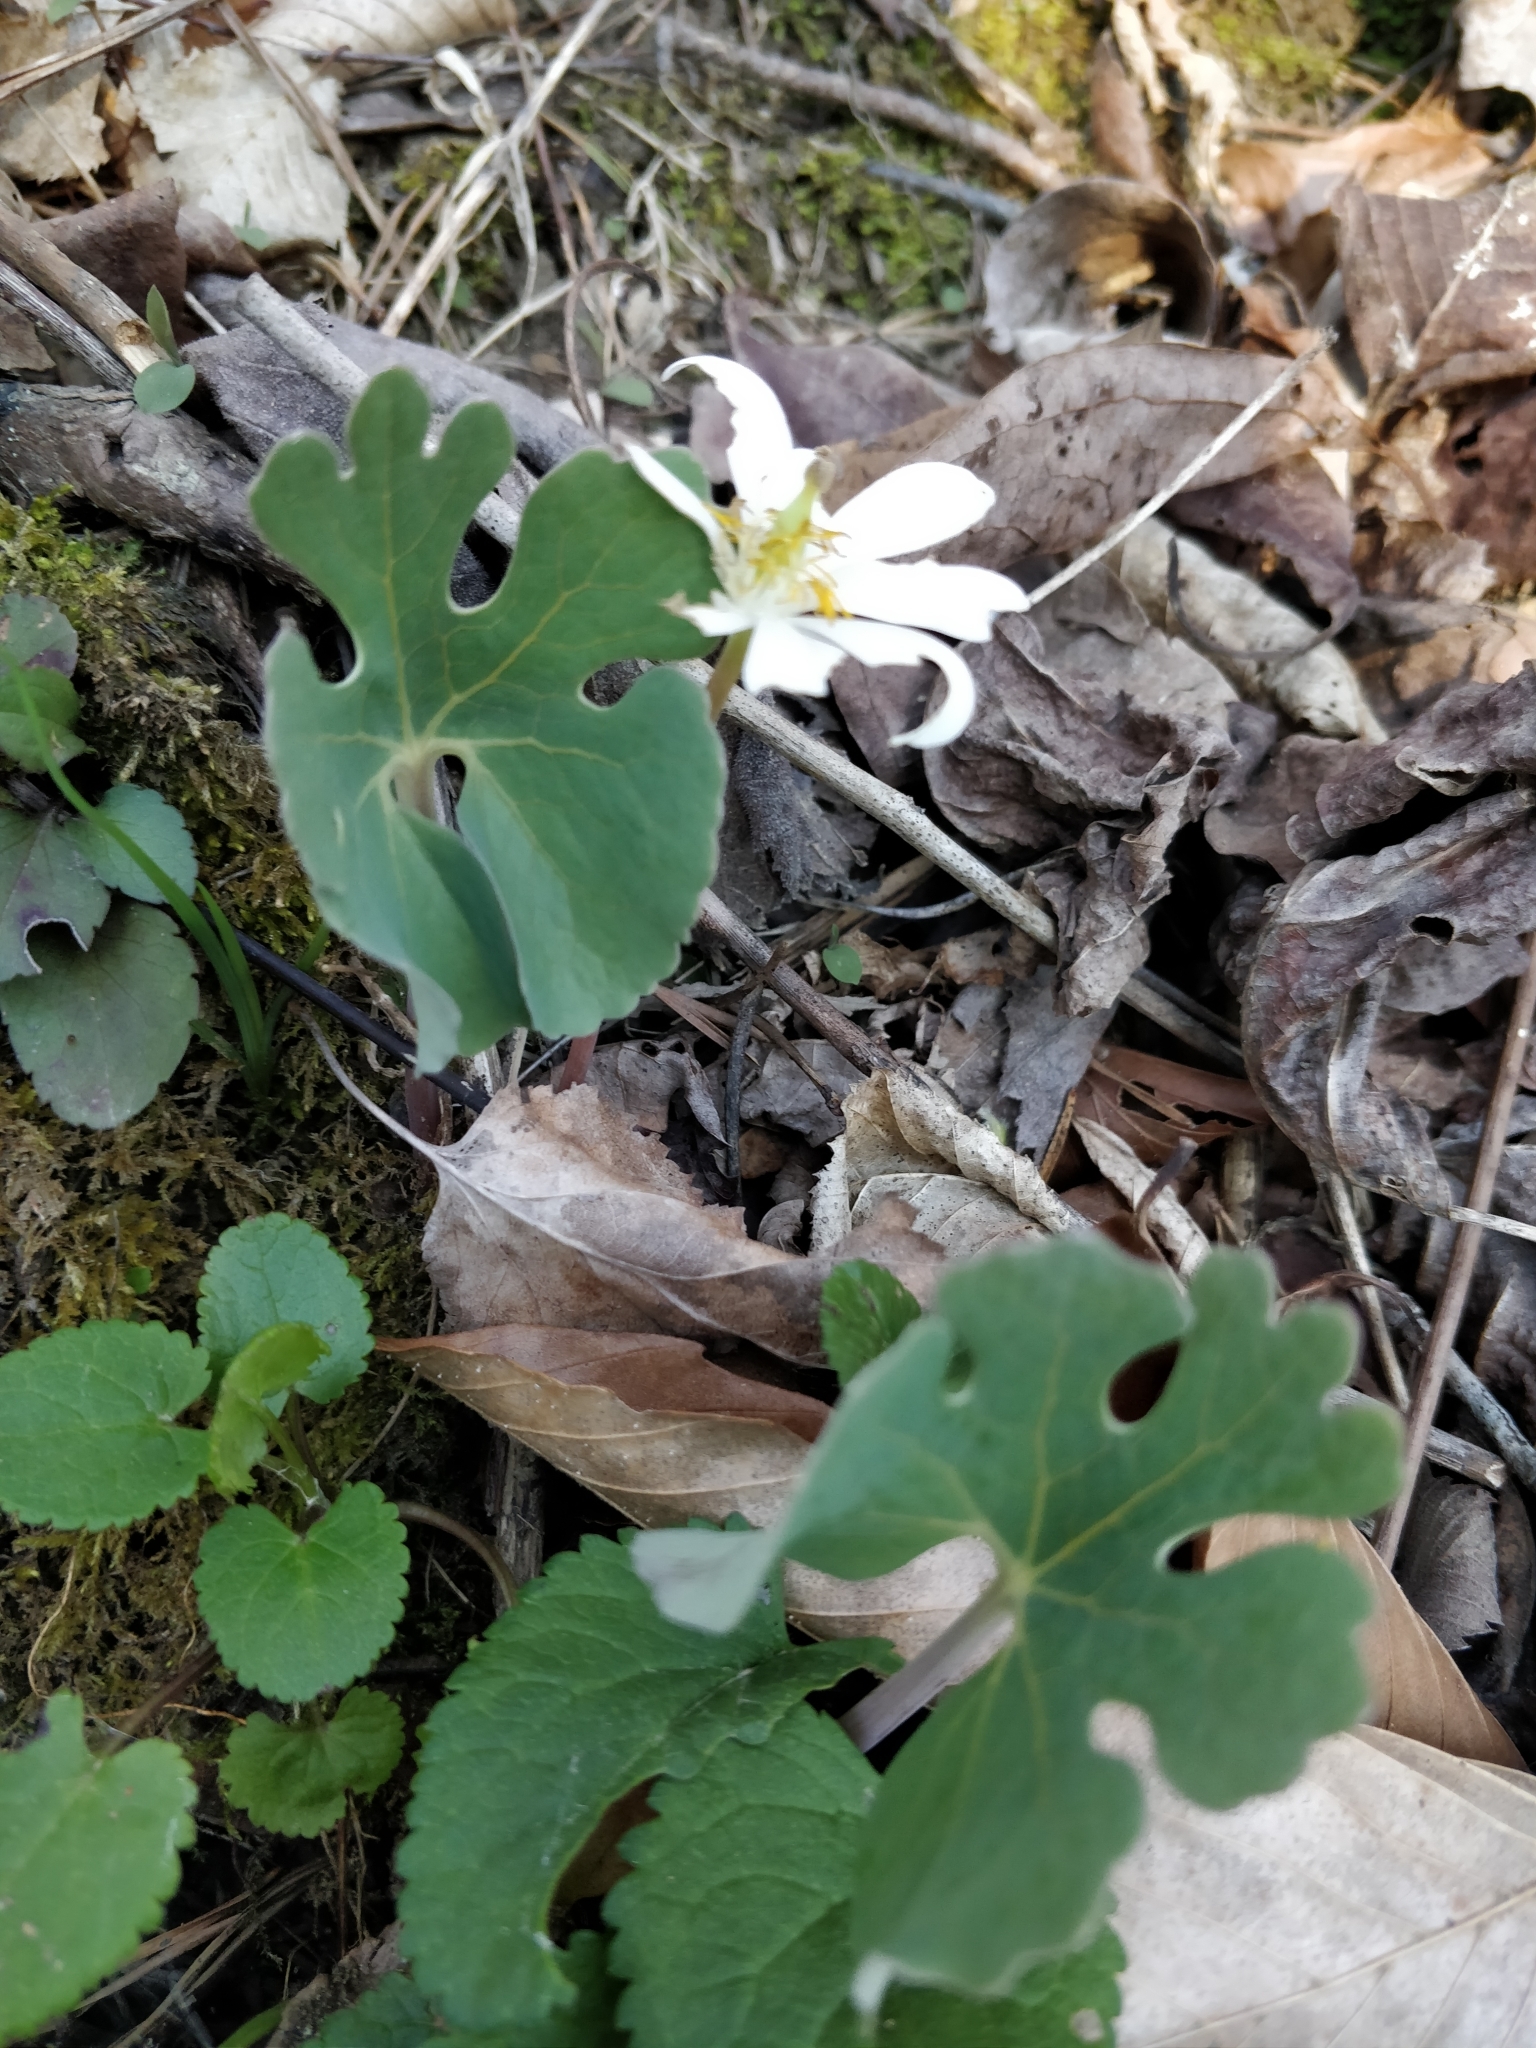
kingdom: Plantae
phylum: Tracheophyta
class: Magnoliopsida
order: Ranunculales
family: Papaveraceae
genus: Sanguinaria
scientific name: Sanguinaria canadensis
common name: Bloodroot
